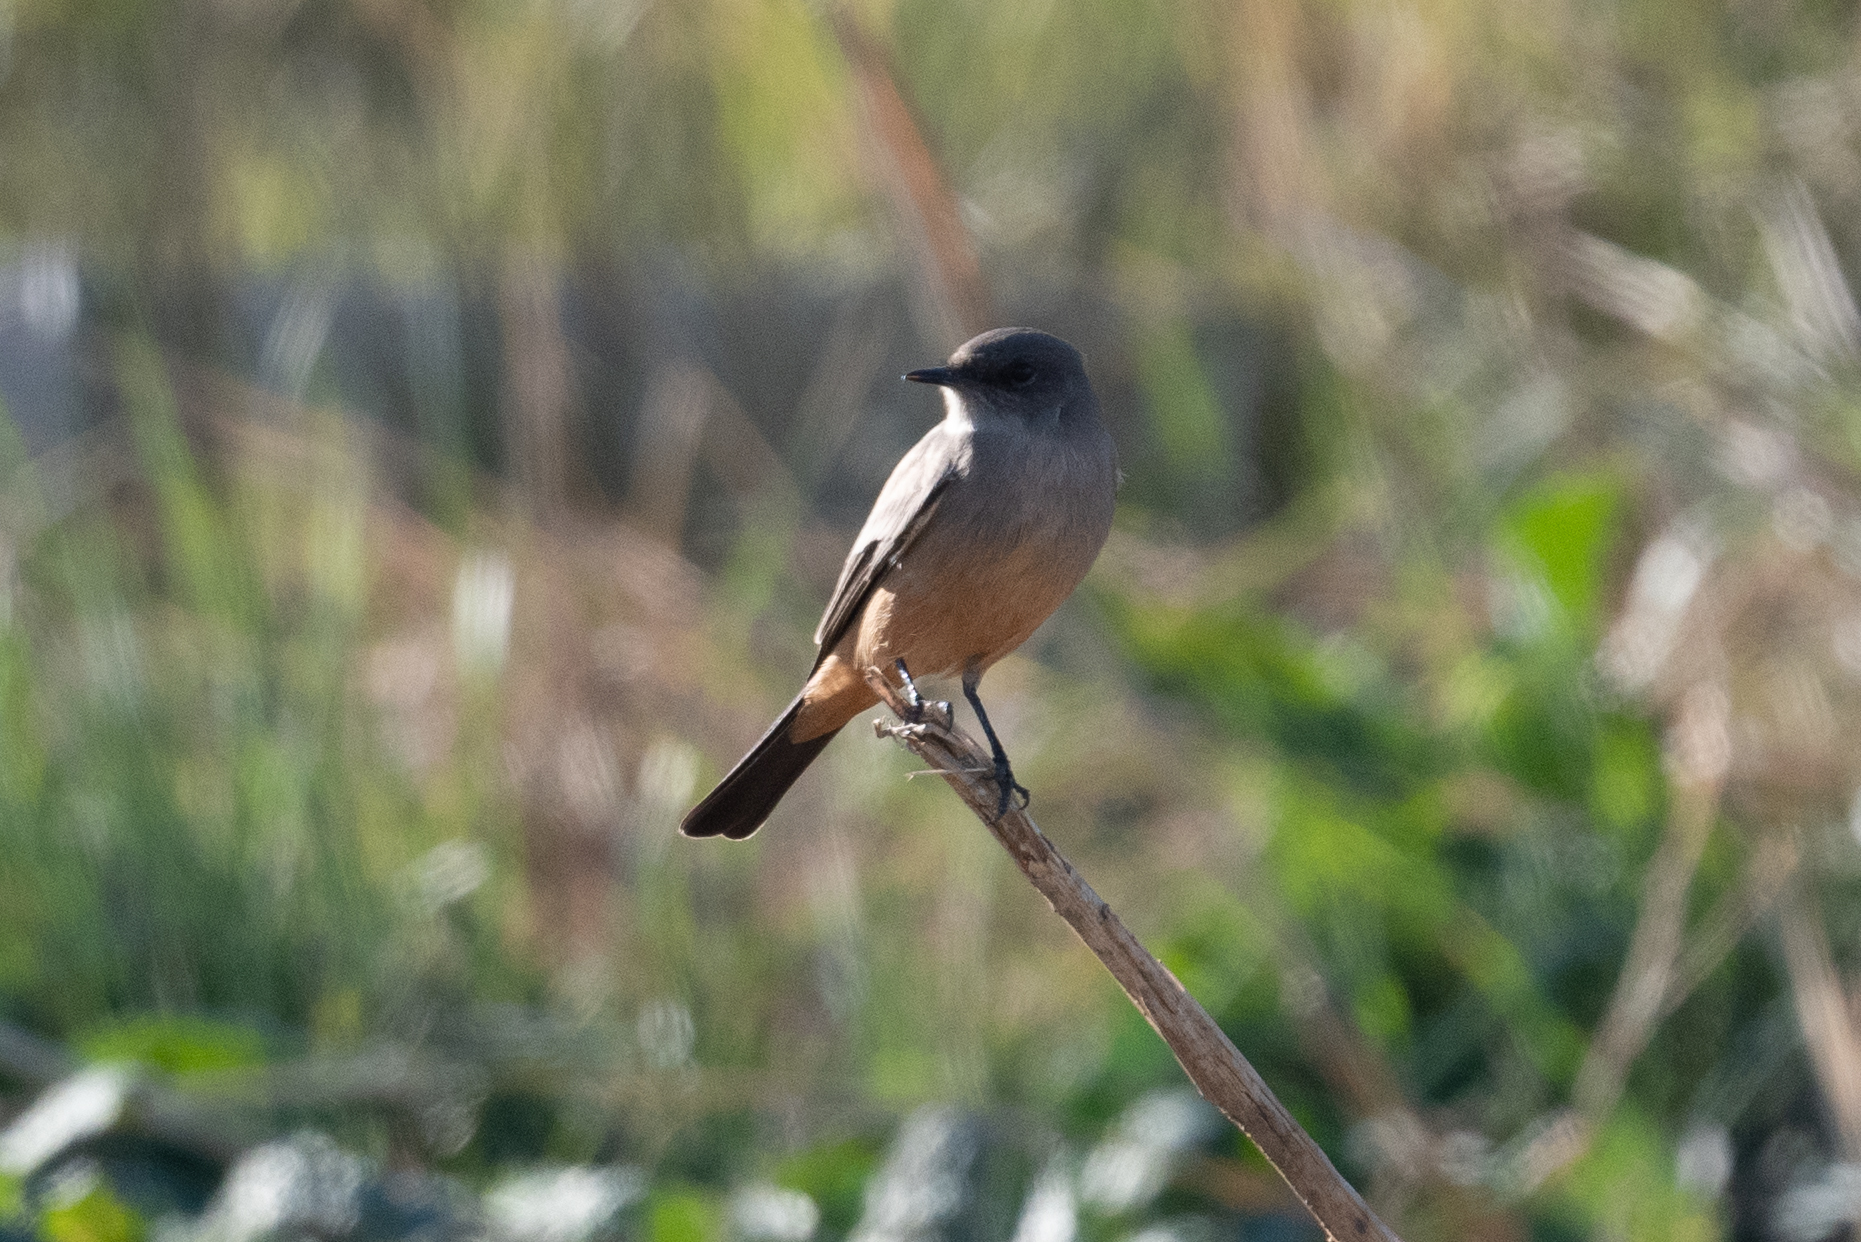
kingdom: Animalia
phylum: Chordata
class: Aves
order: Passeriformes
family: Tyrannidae
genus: Sayornis
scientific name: Sayornis saya
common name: Say's phoebe
